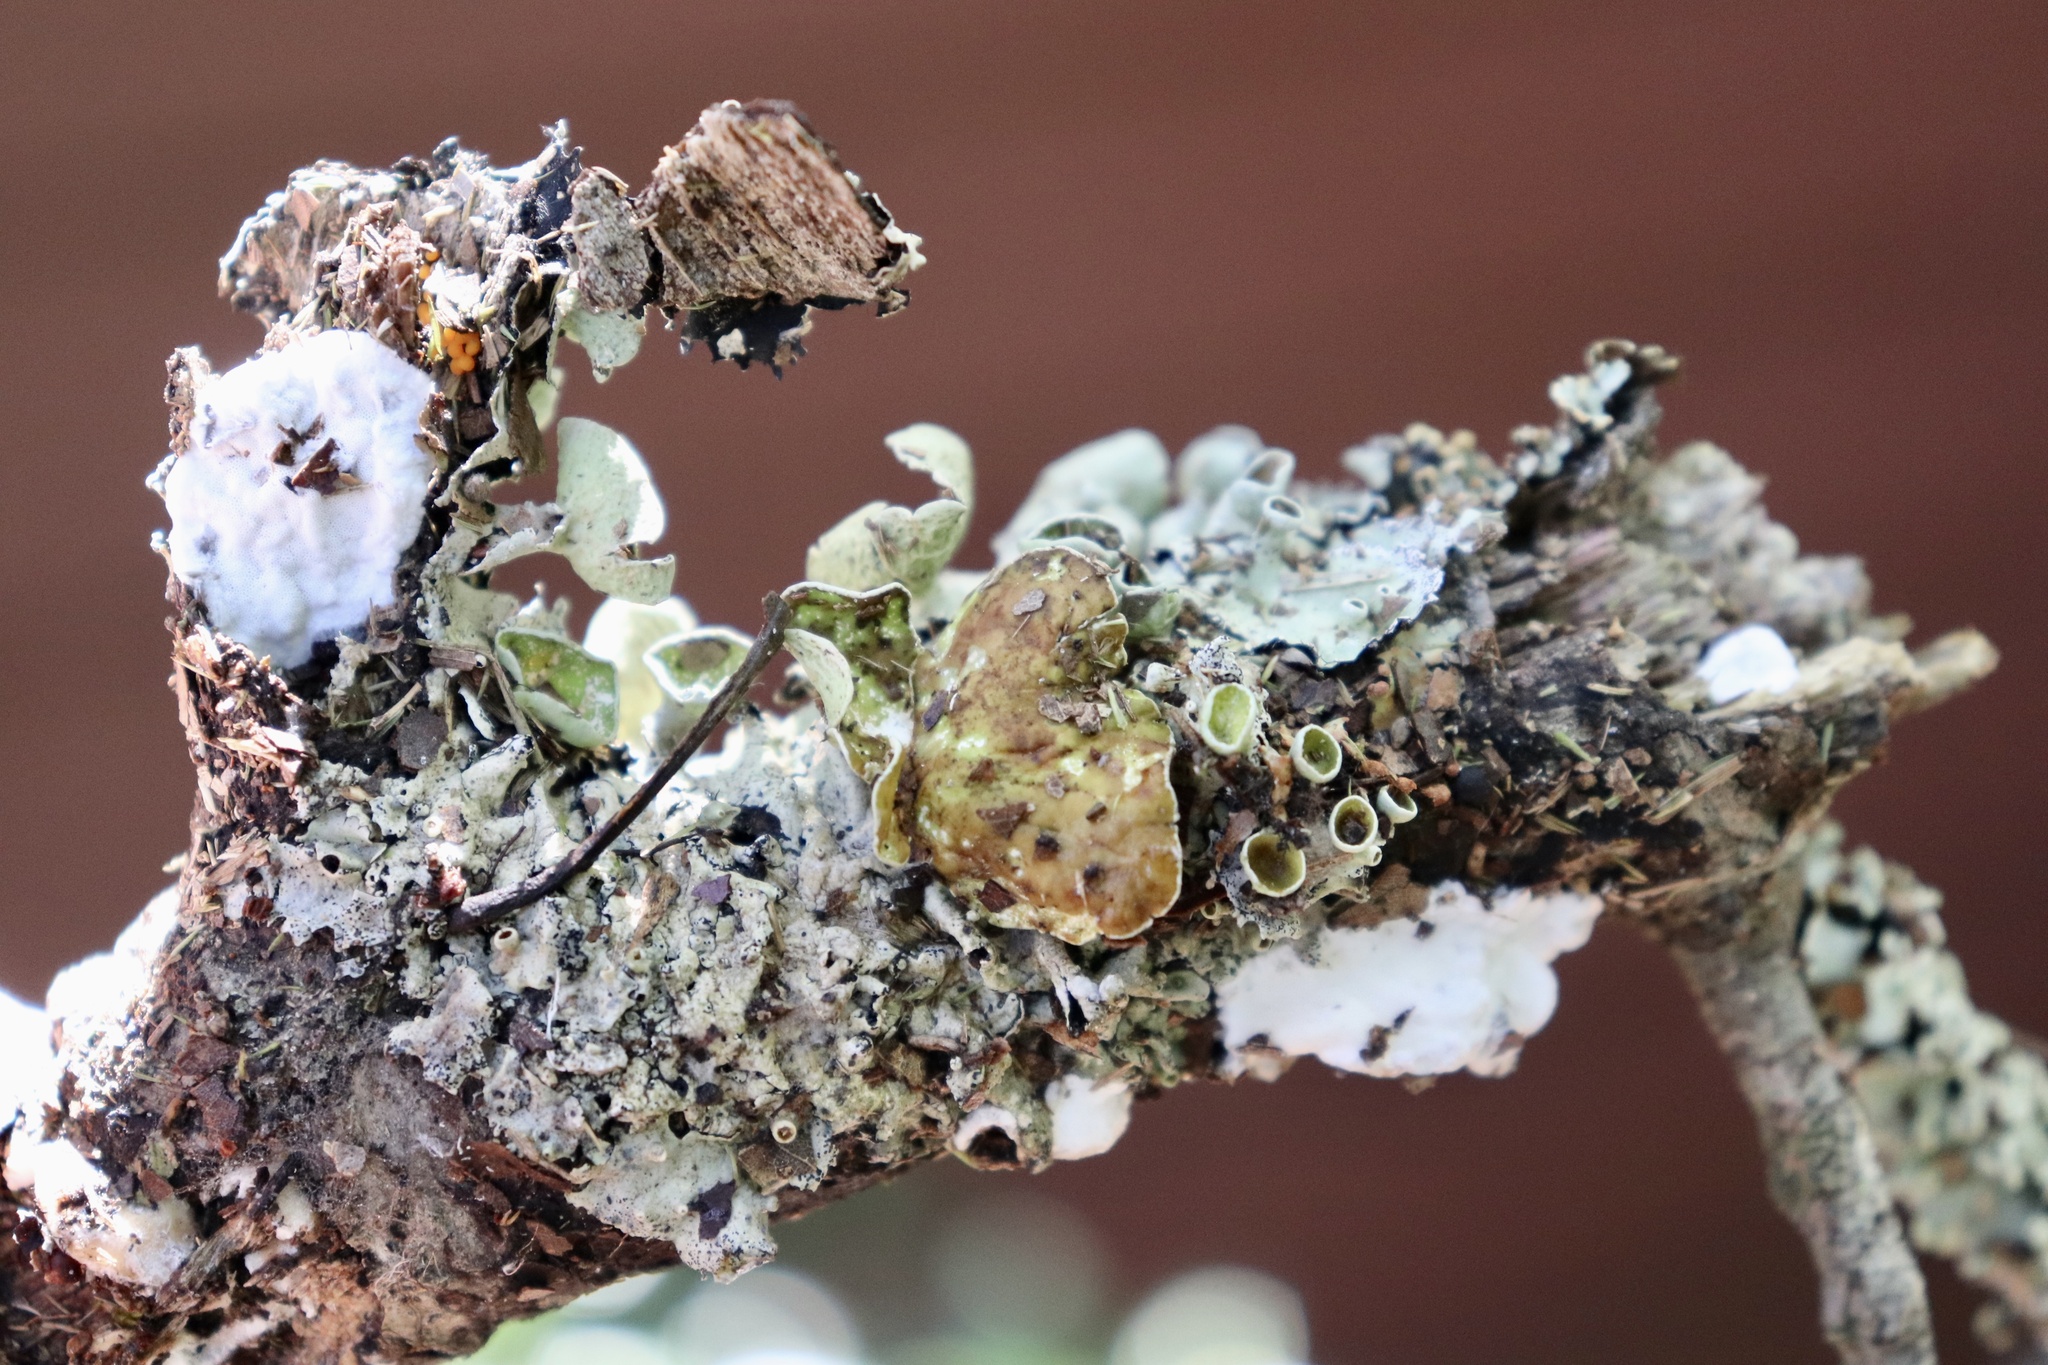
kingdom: Fungi
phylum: Ascomycota
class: Lecanoromycetes
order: Lecanorales
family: Parmeliaceae
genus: Parmotrema
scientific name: Parmotrema submarginale
